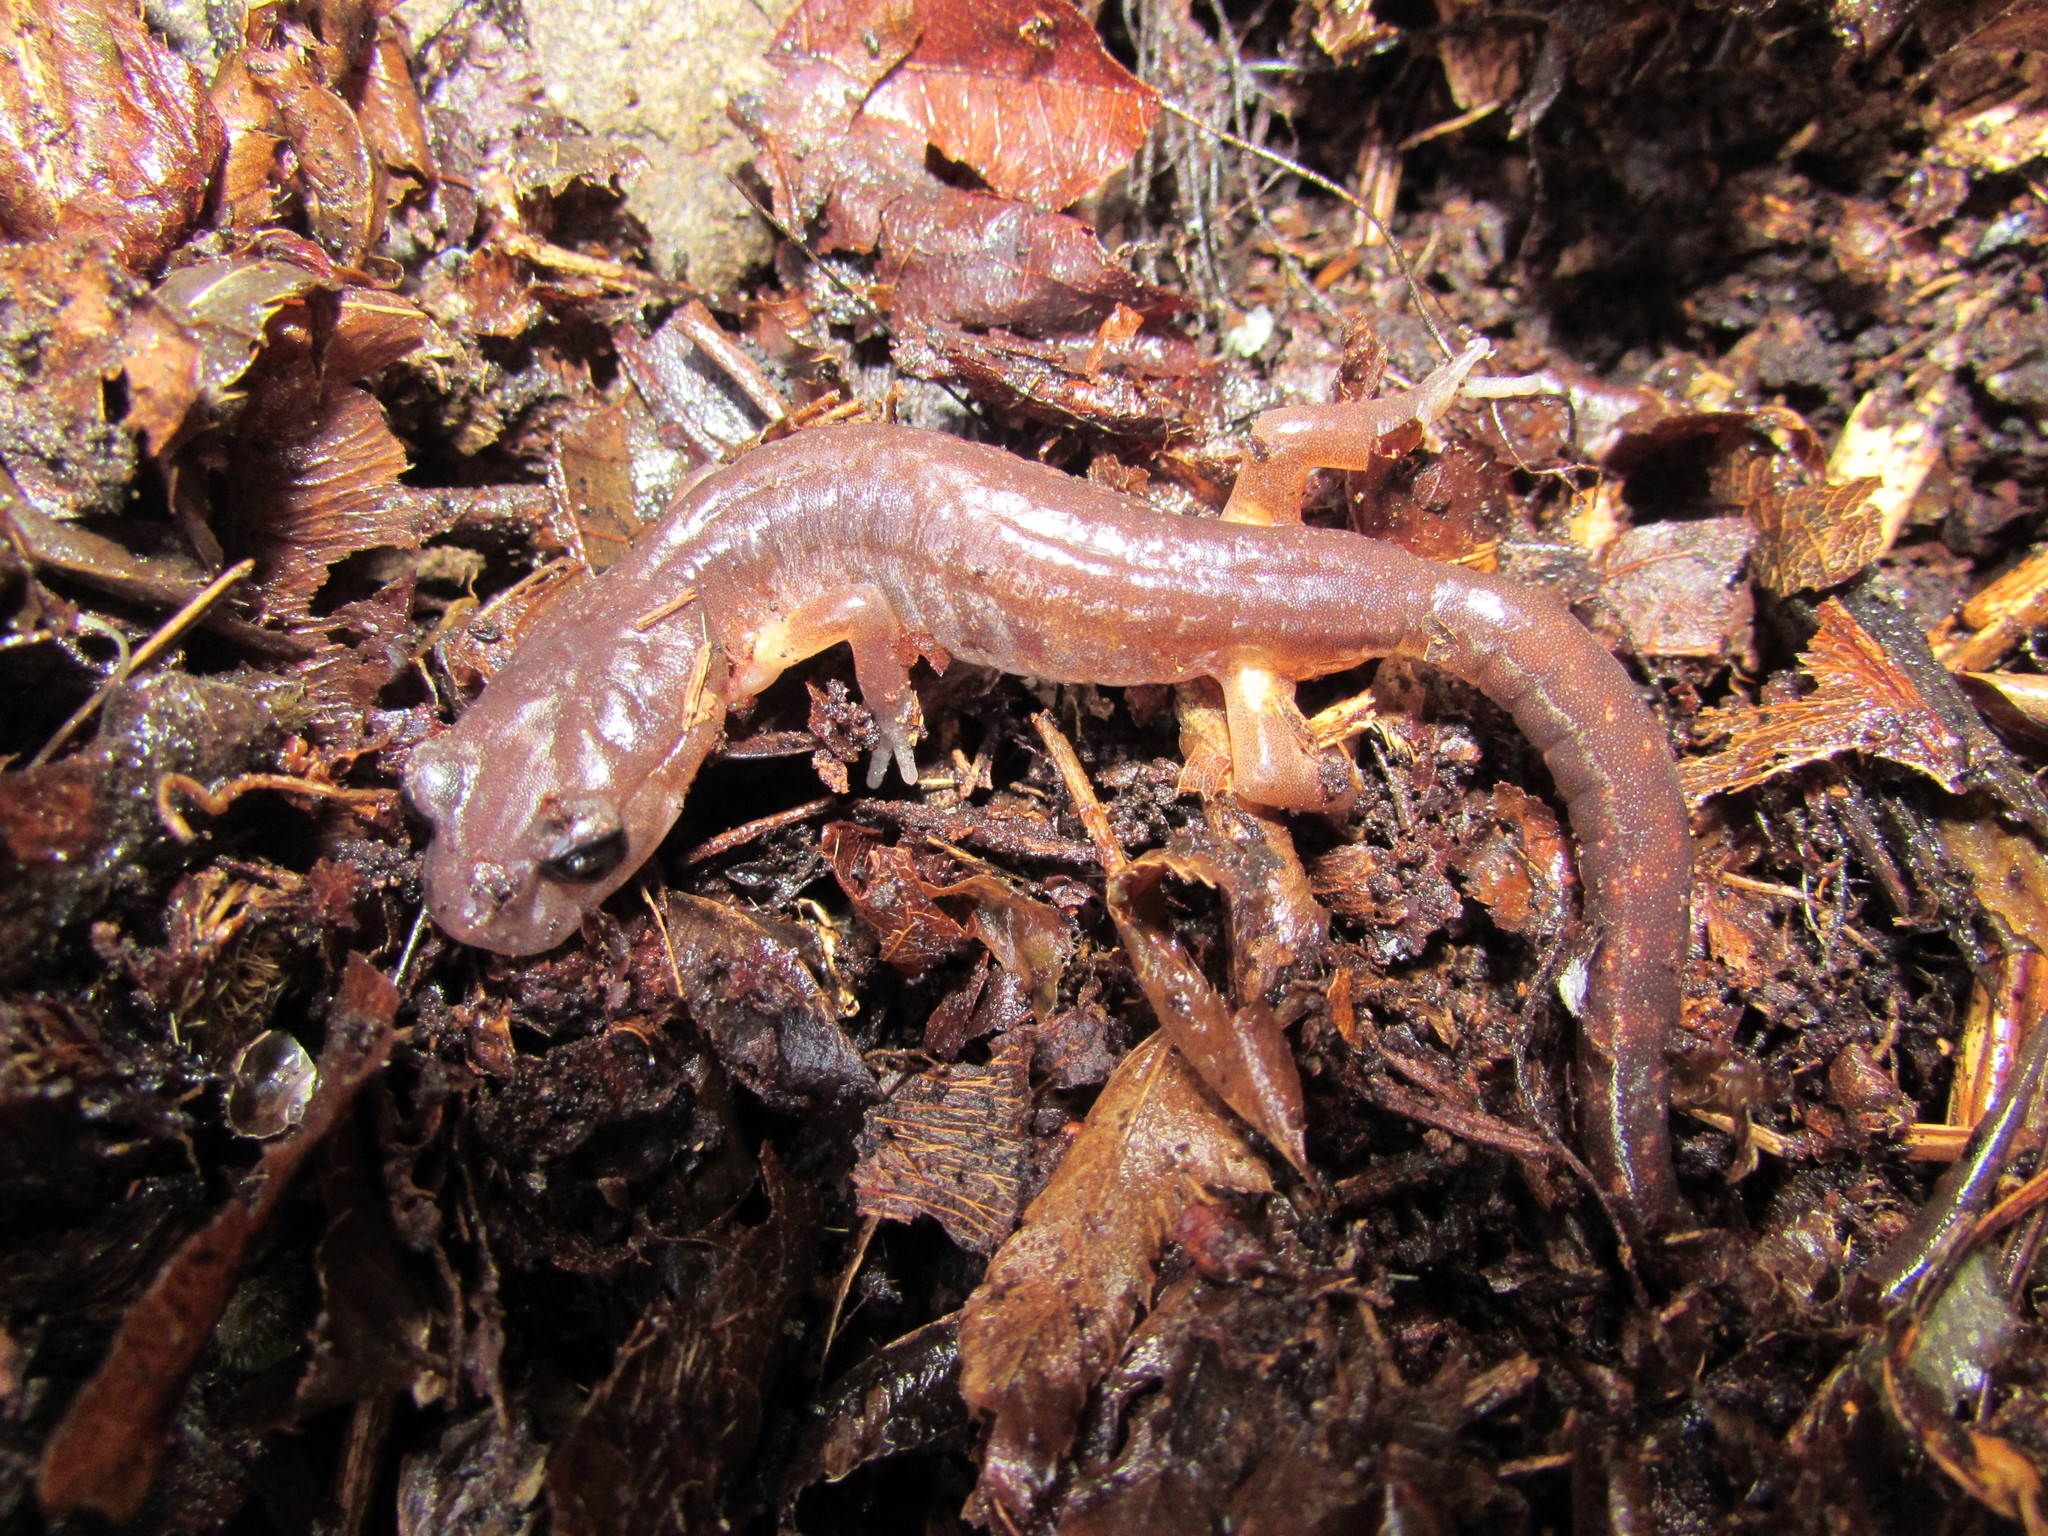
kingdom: Animalia
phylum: Chordata
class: Amphibia
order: Caudata
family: Plethodontidae
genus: Ensatina
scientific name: Ensatina eschscholtzii
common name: Ensatina
